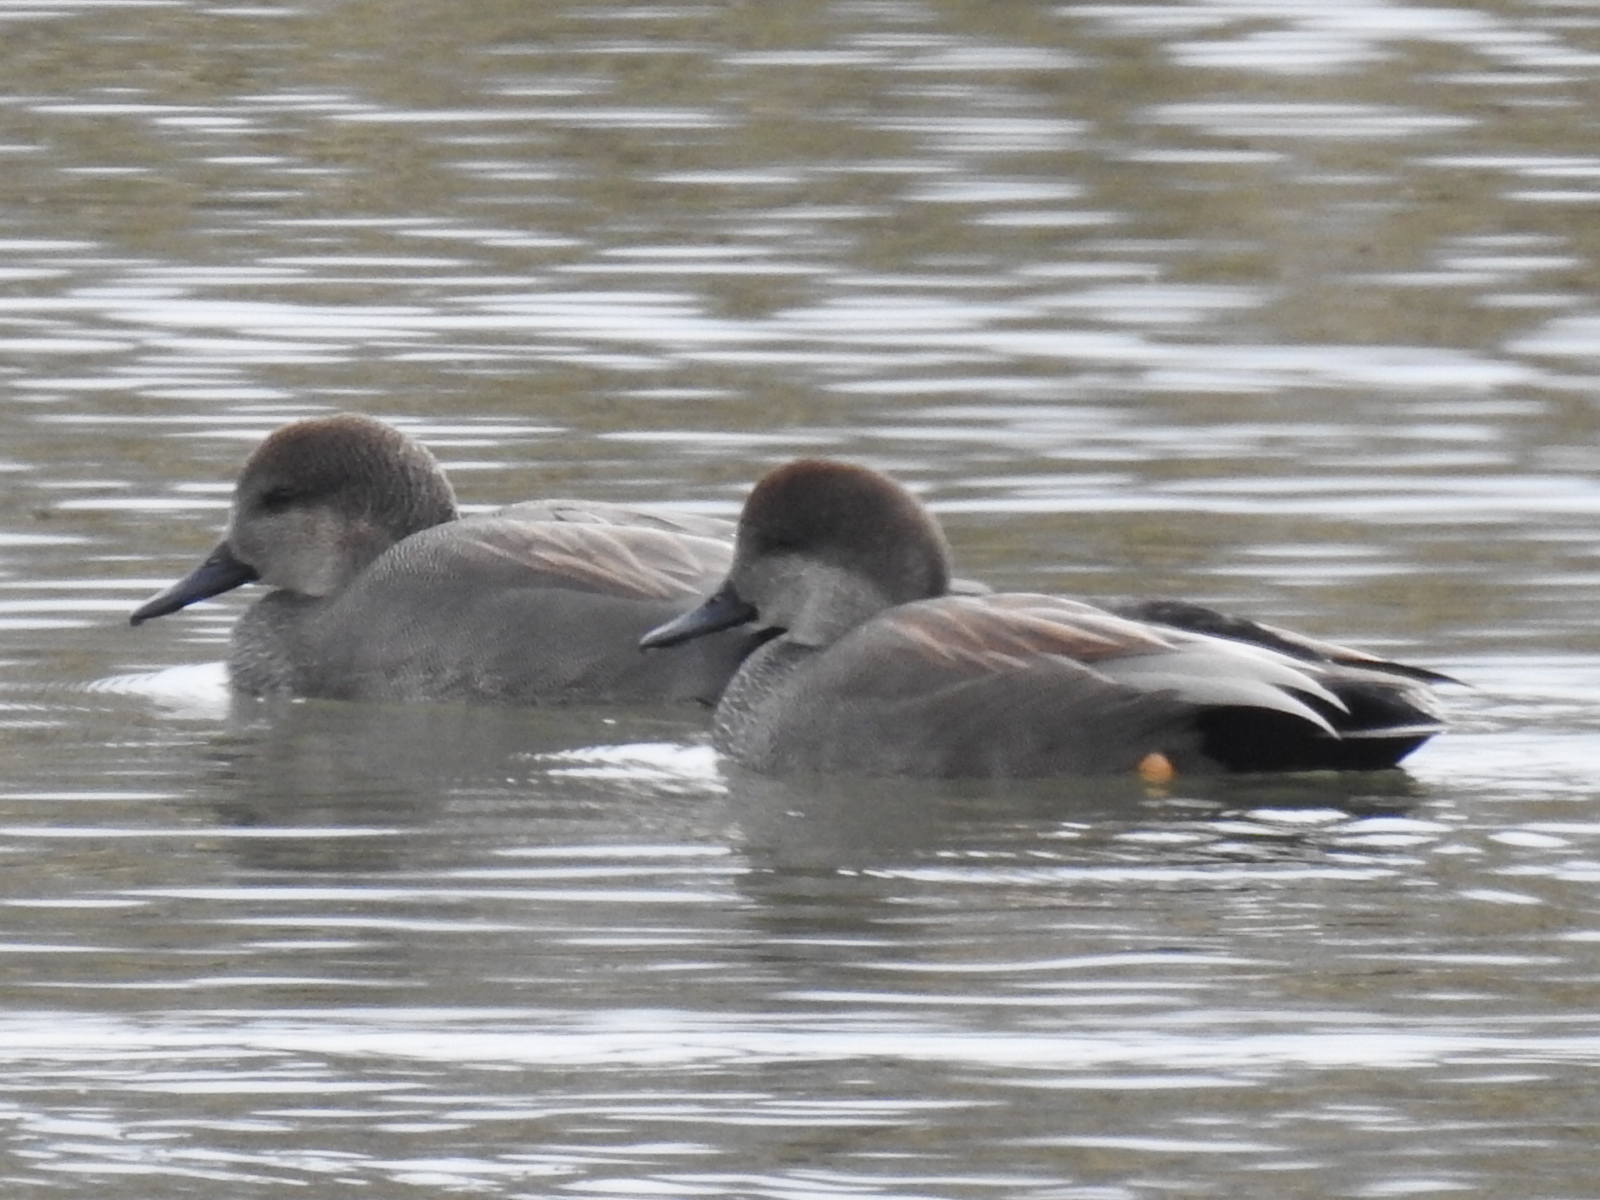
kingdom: Animalia
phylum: Chordata
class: Aves
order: Anseriformes
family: Anatidae
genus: Mareca
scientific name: Mareca strepera
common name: Gadwall
